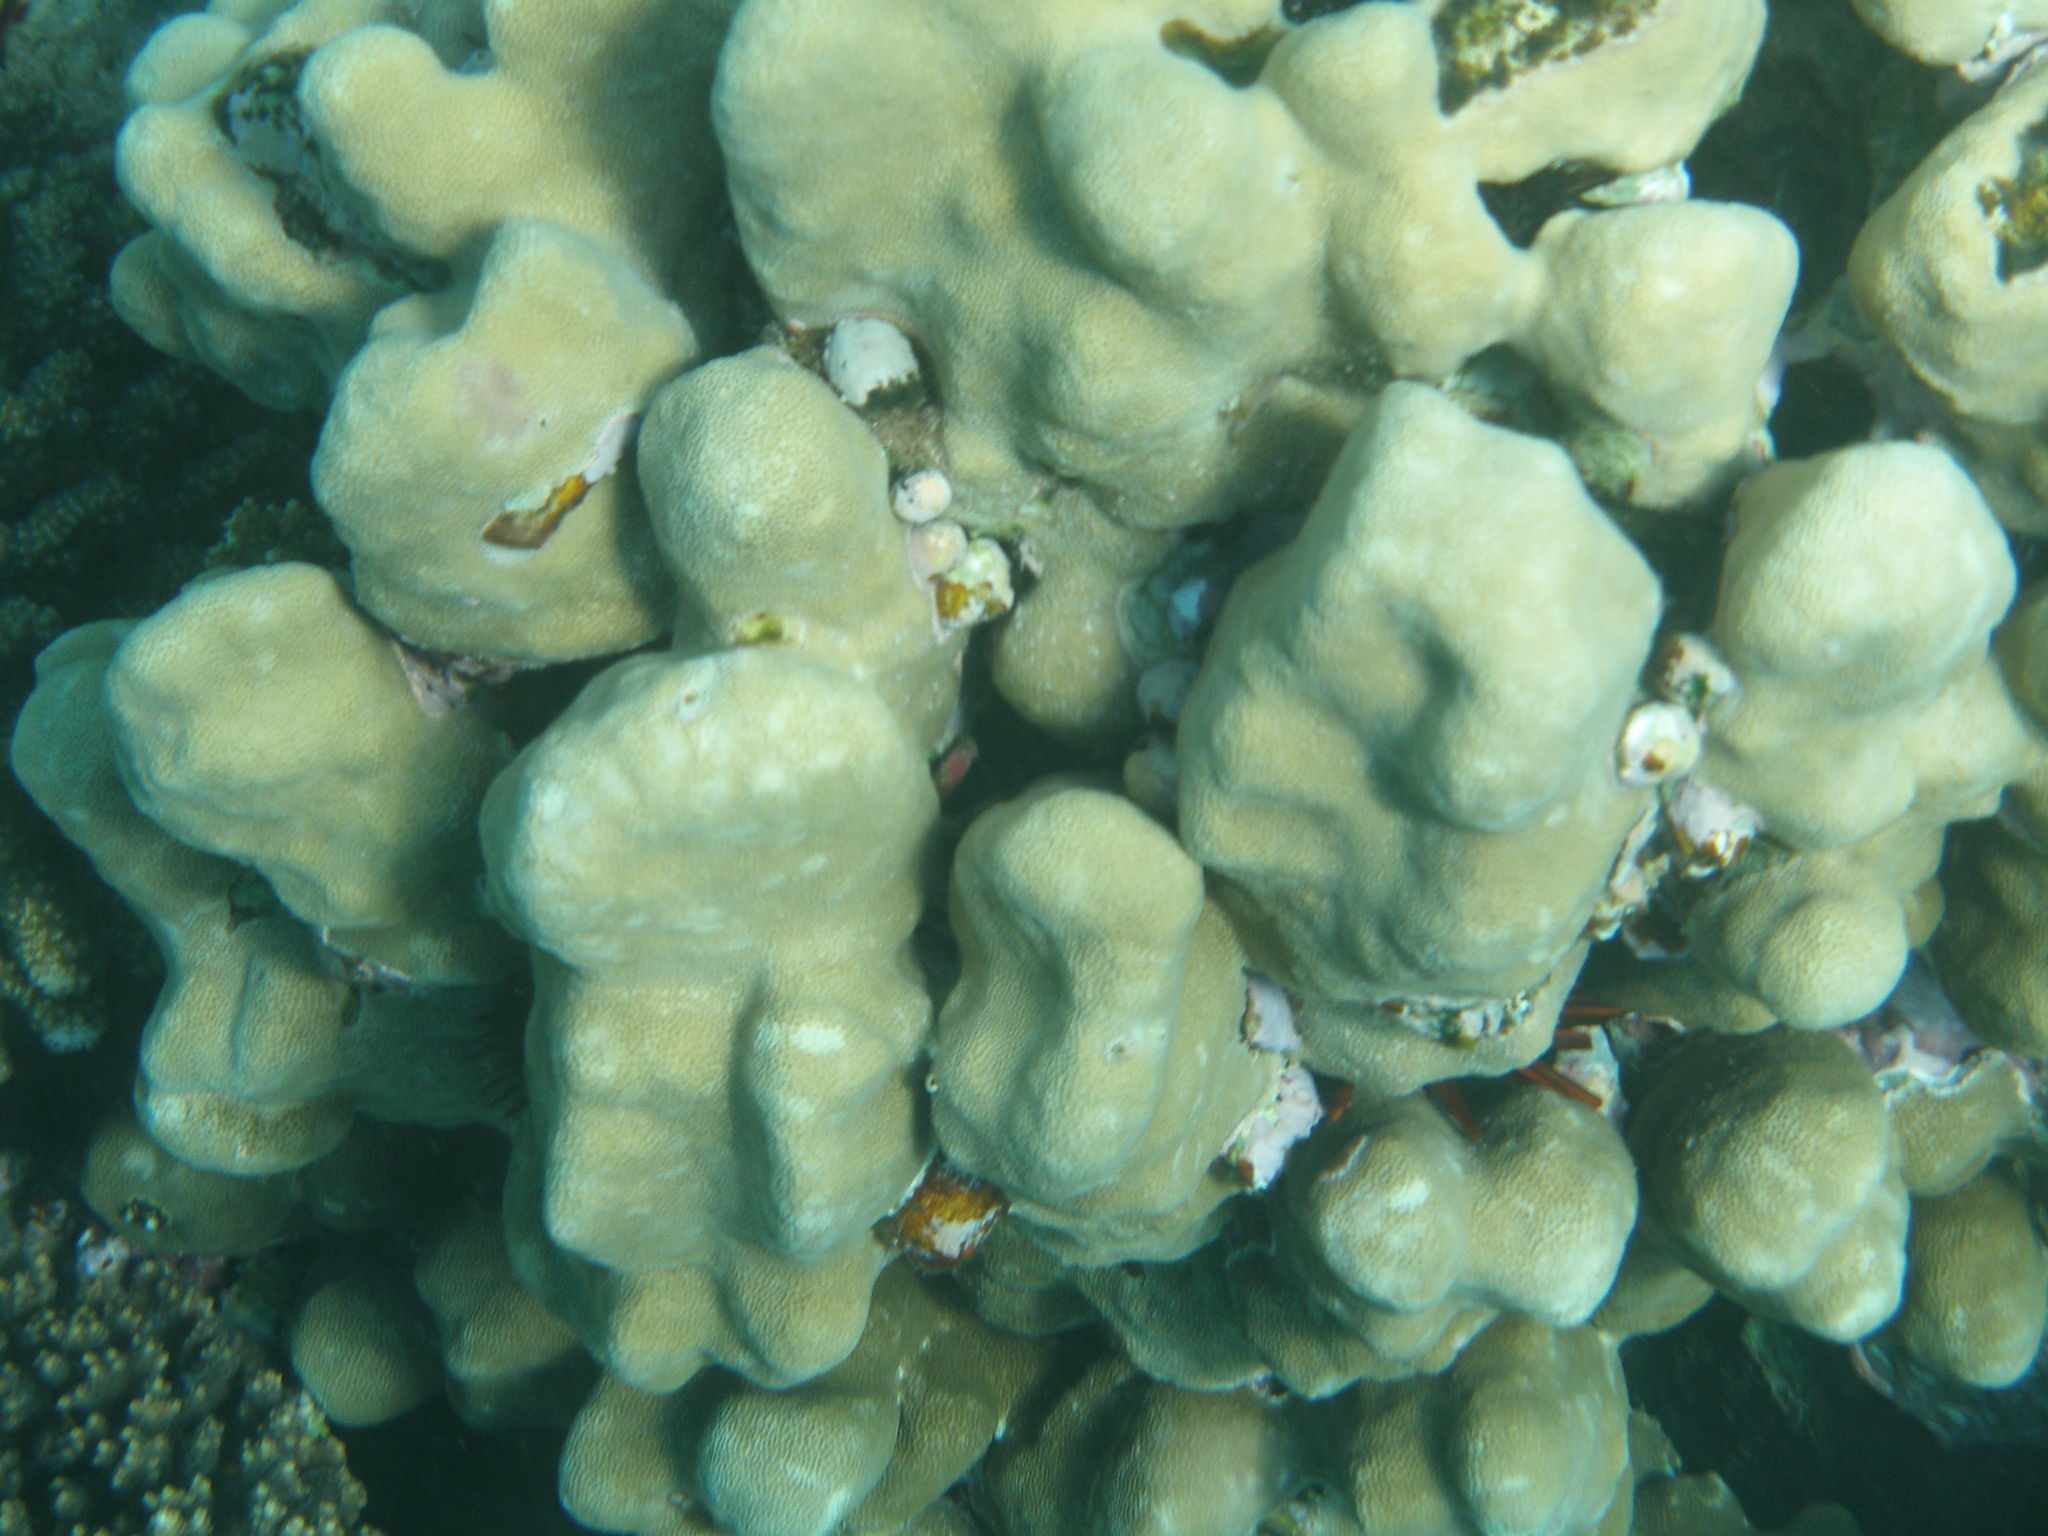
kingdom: Animalia
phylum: Cnidaria
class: Anthozoa
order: Scleractinia
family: Poritidae
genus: Porites
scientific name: Porites nodifera
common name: Hump coral
